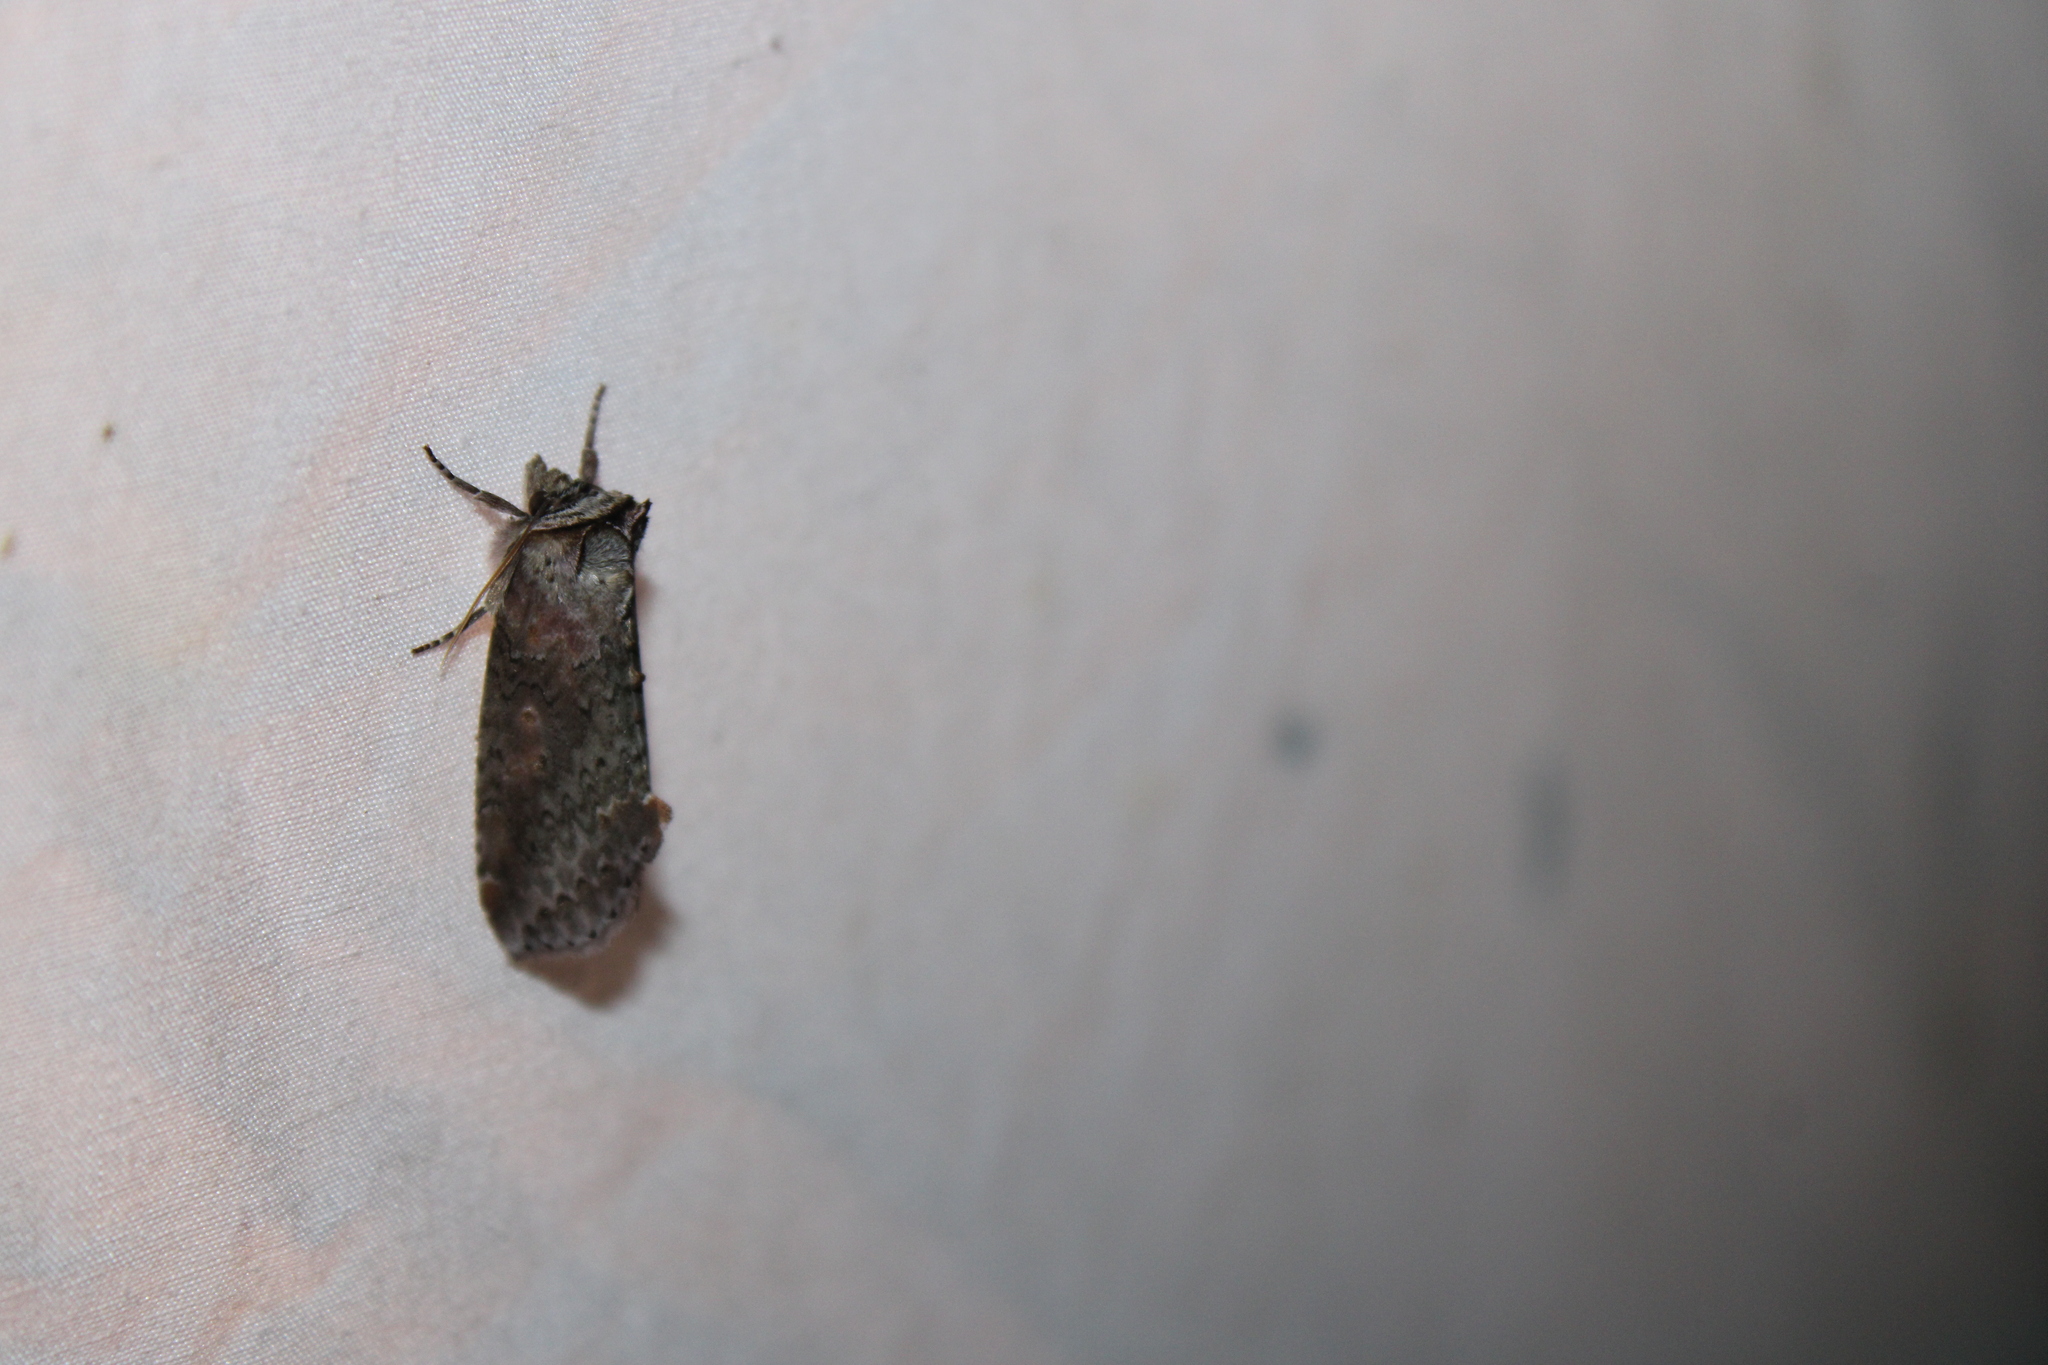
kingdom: Animalia
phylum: Arthropoda
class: Insecta
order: Lepidoptera
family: Drepanidae
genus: Pseudothyatira
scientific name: Pseudothyatira cymatophoroides
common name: Tufted thyatirid moth
